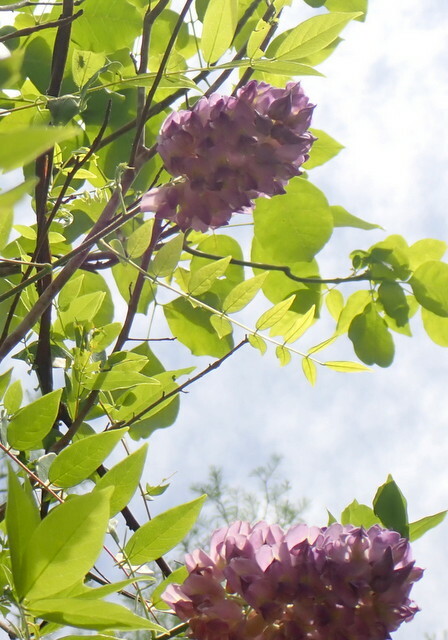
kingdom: Plantae
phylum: Tracheophyta
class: Magnoliopsida
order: Fabales
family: Fabaceae
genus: Wisteria
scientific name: Wisteria frutescens
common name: American wisteria
